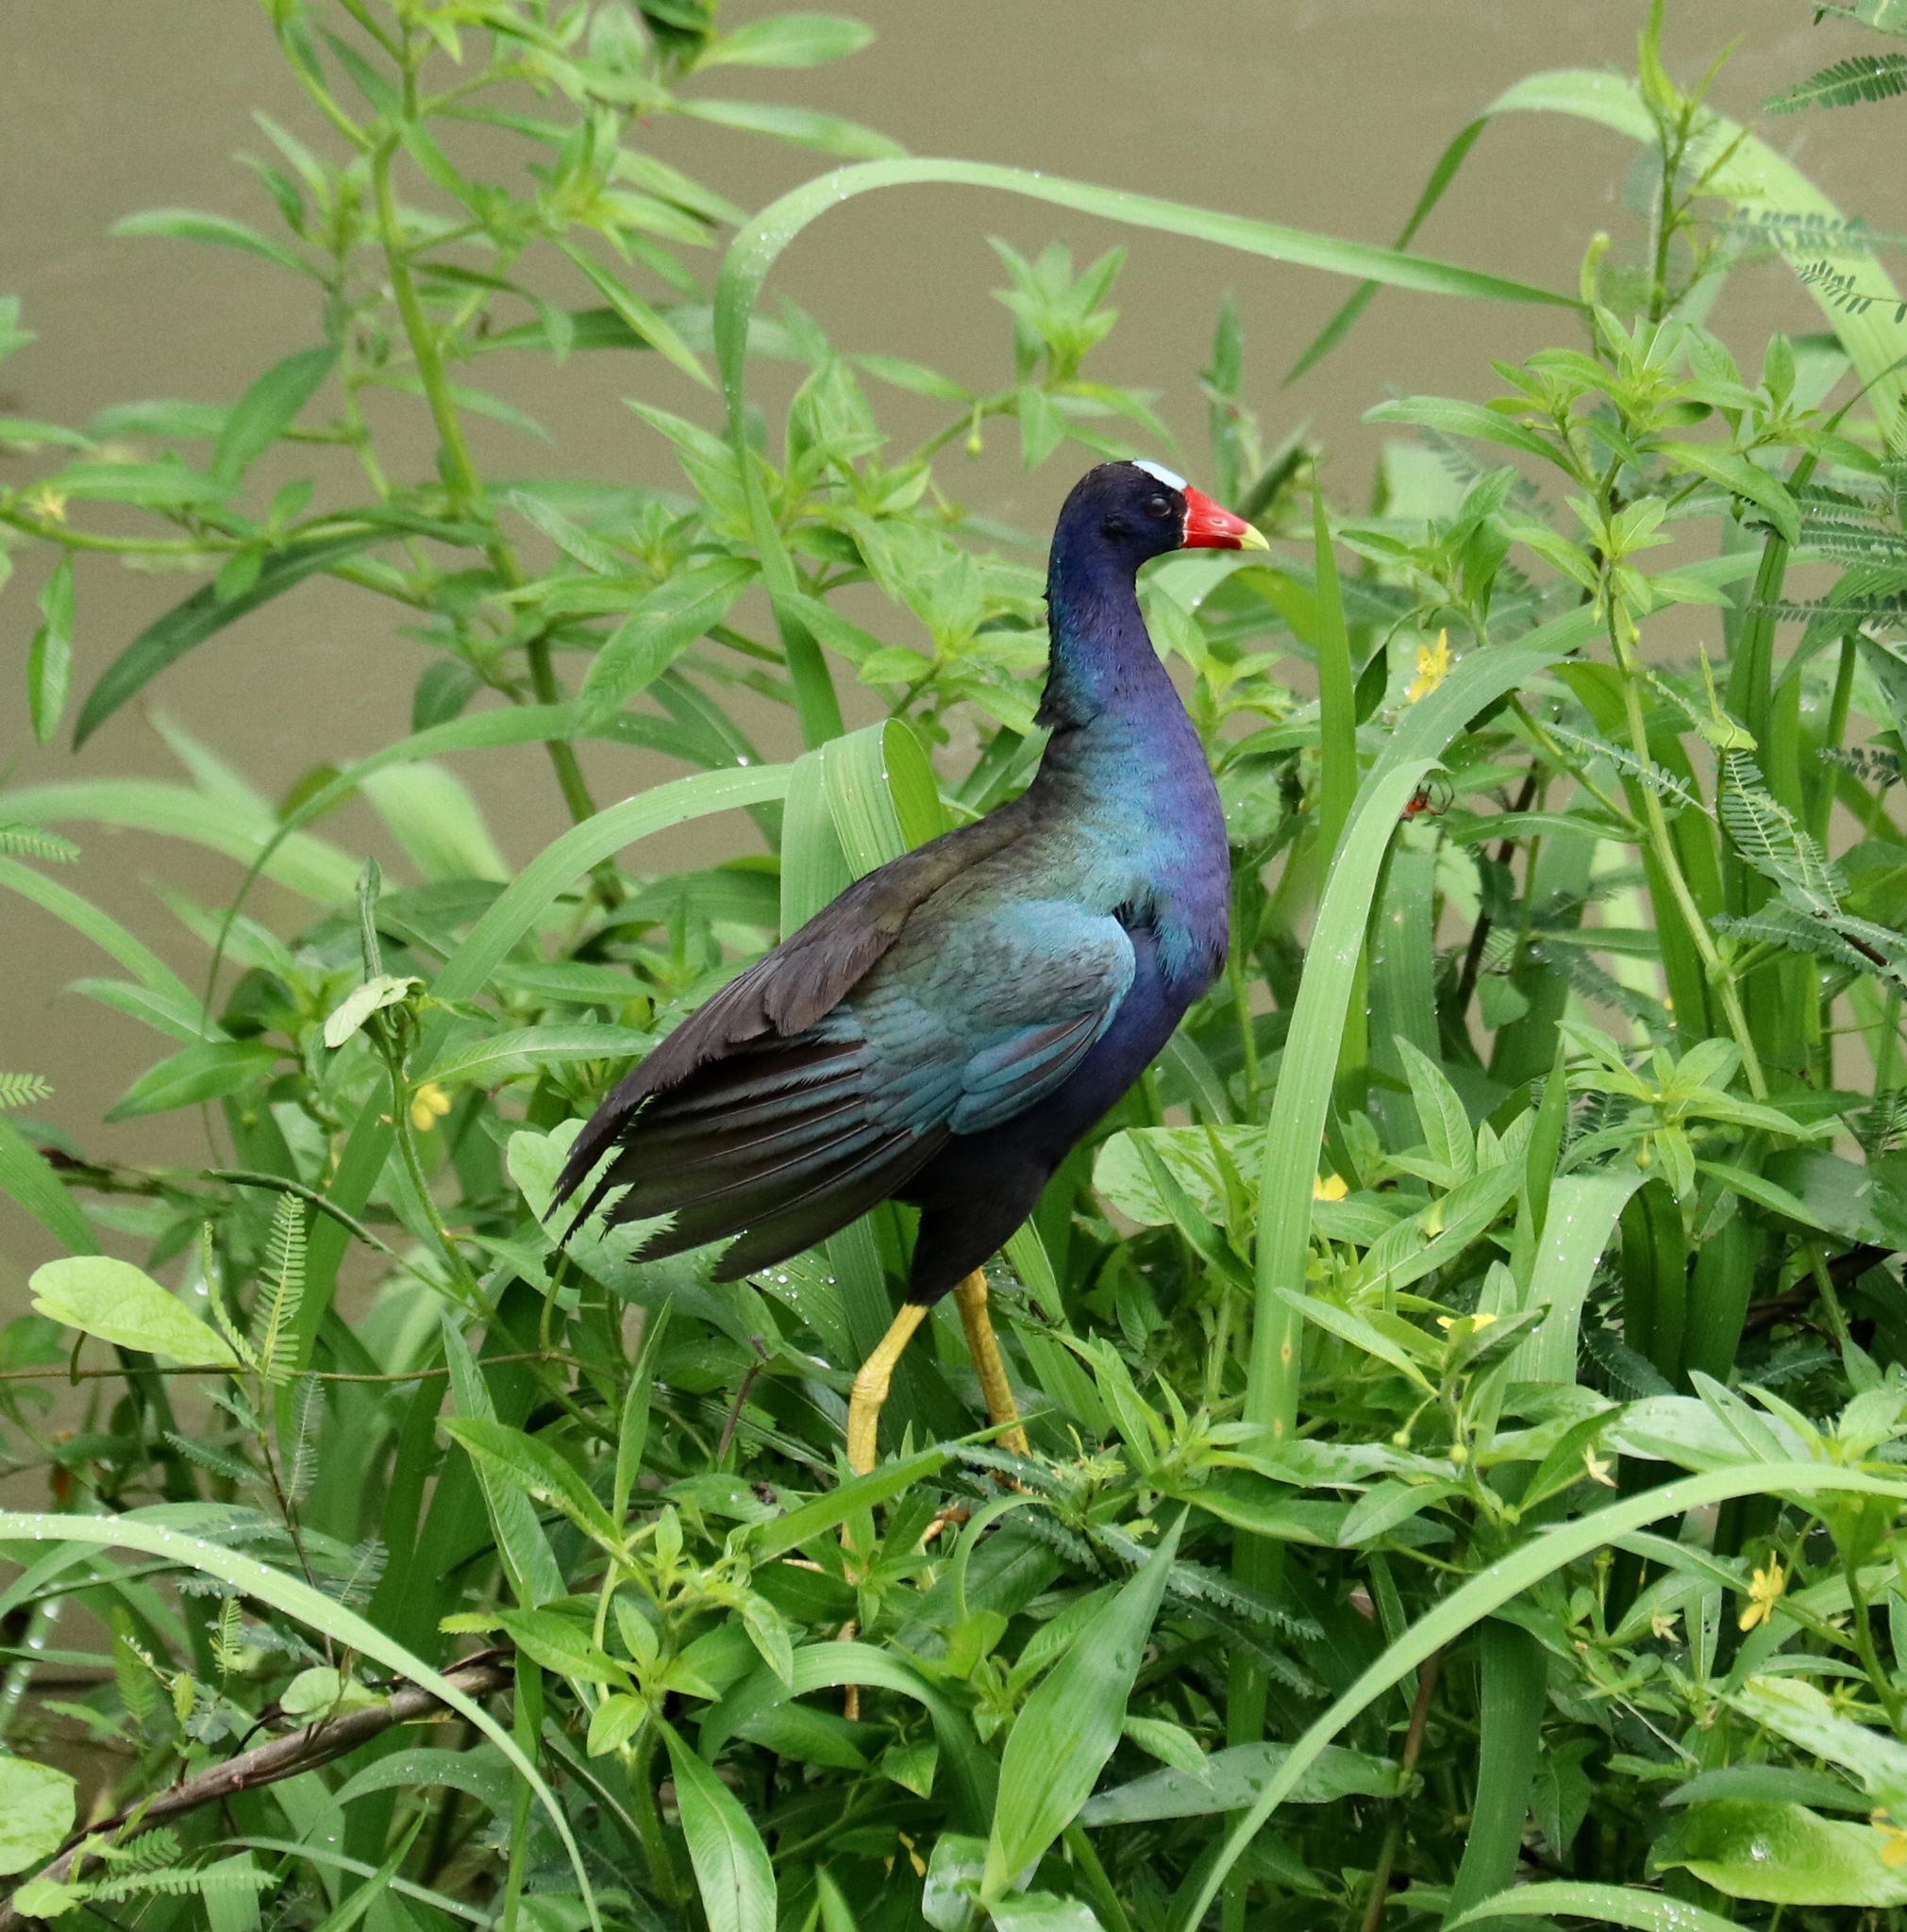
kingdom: Animalia
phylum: Chordata
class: Aves
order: Gruiformes
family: Rallidae
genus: Porphyrio
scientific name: Porphyrio martinica
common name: Purple gallinule
